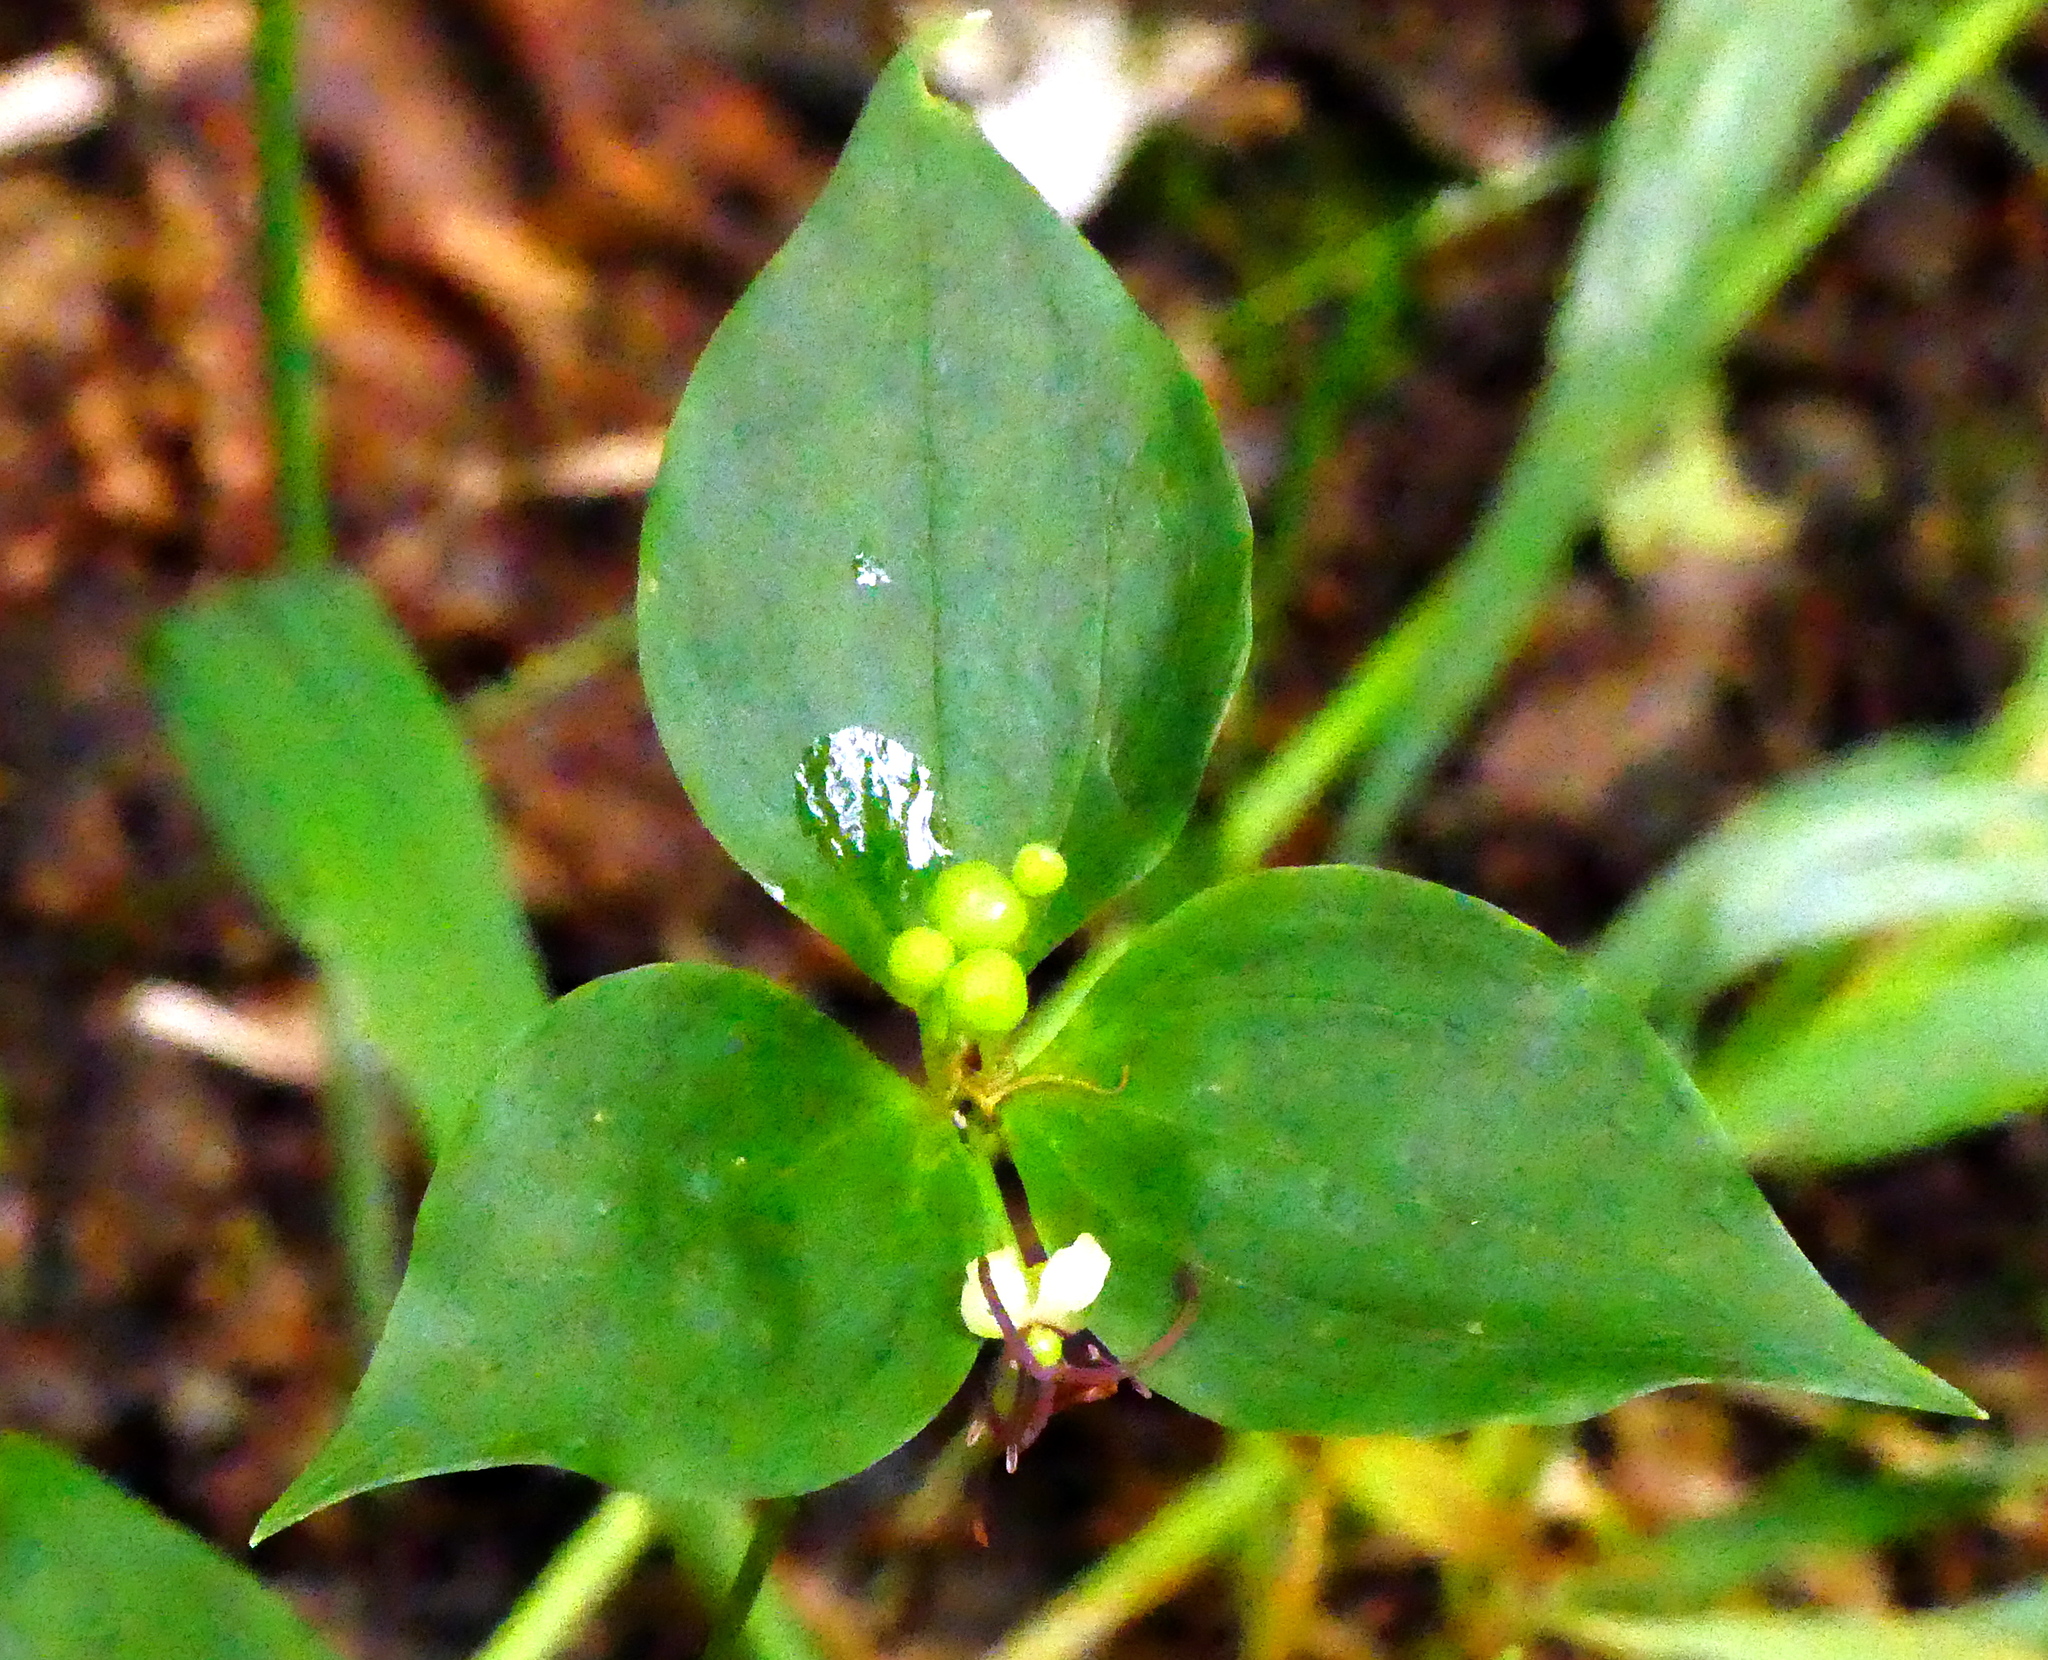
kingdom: Plantae
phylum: Tracheophyta
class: Liliopsida
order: Liliales
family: Liliaceae
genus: Medeola
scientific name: Medeola virginiana
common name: Indian cucumber-root
